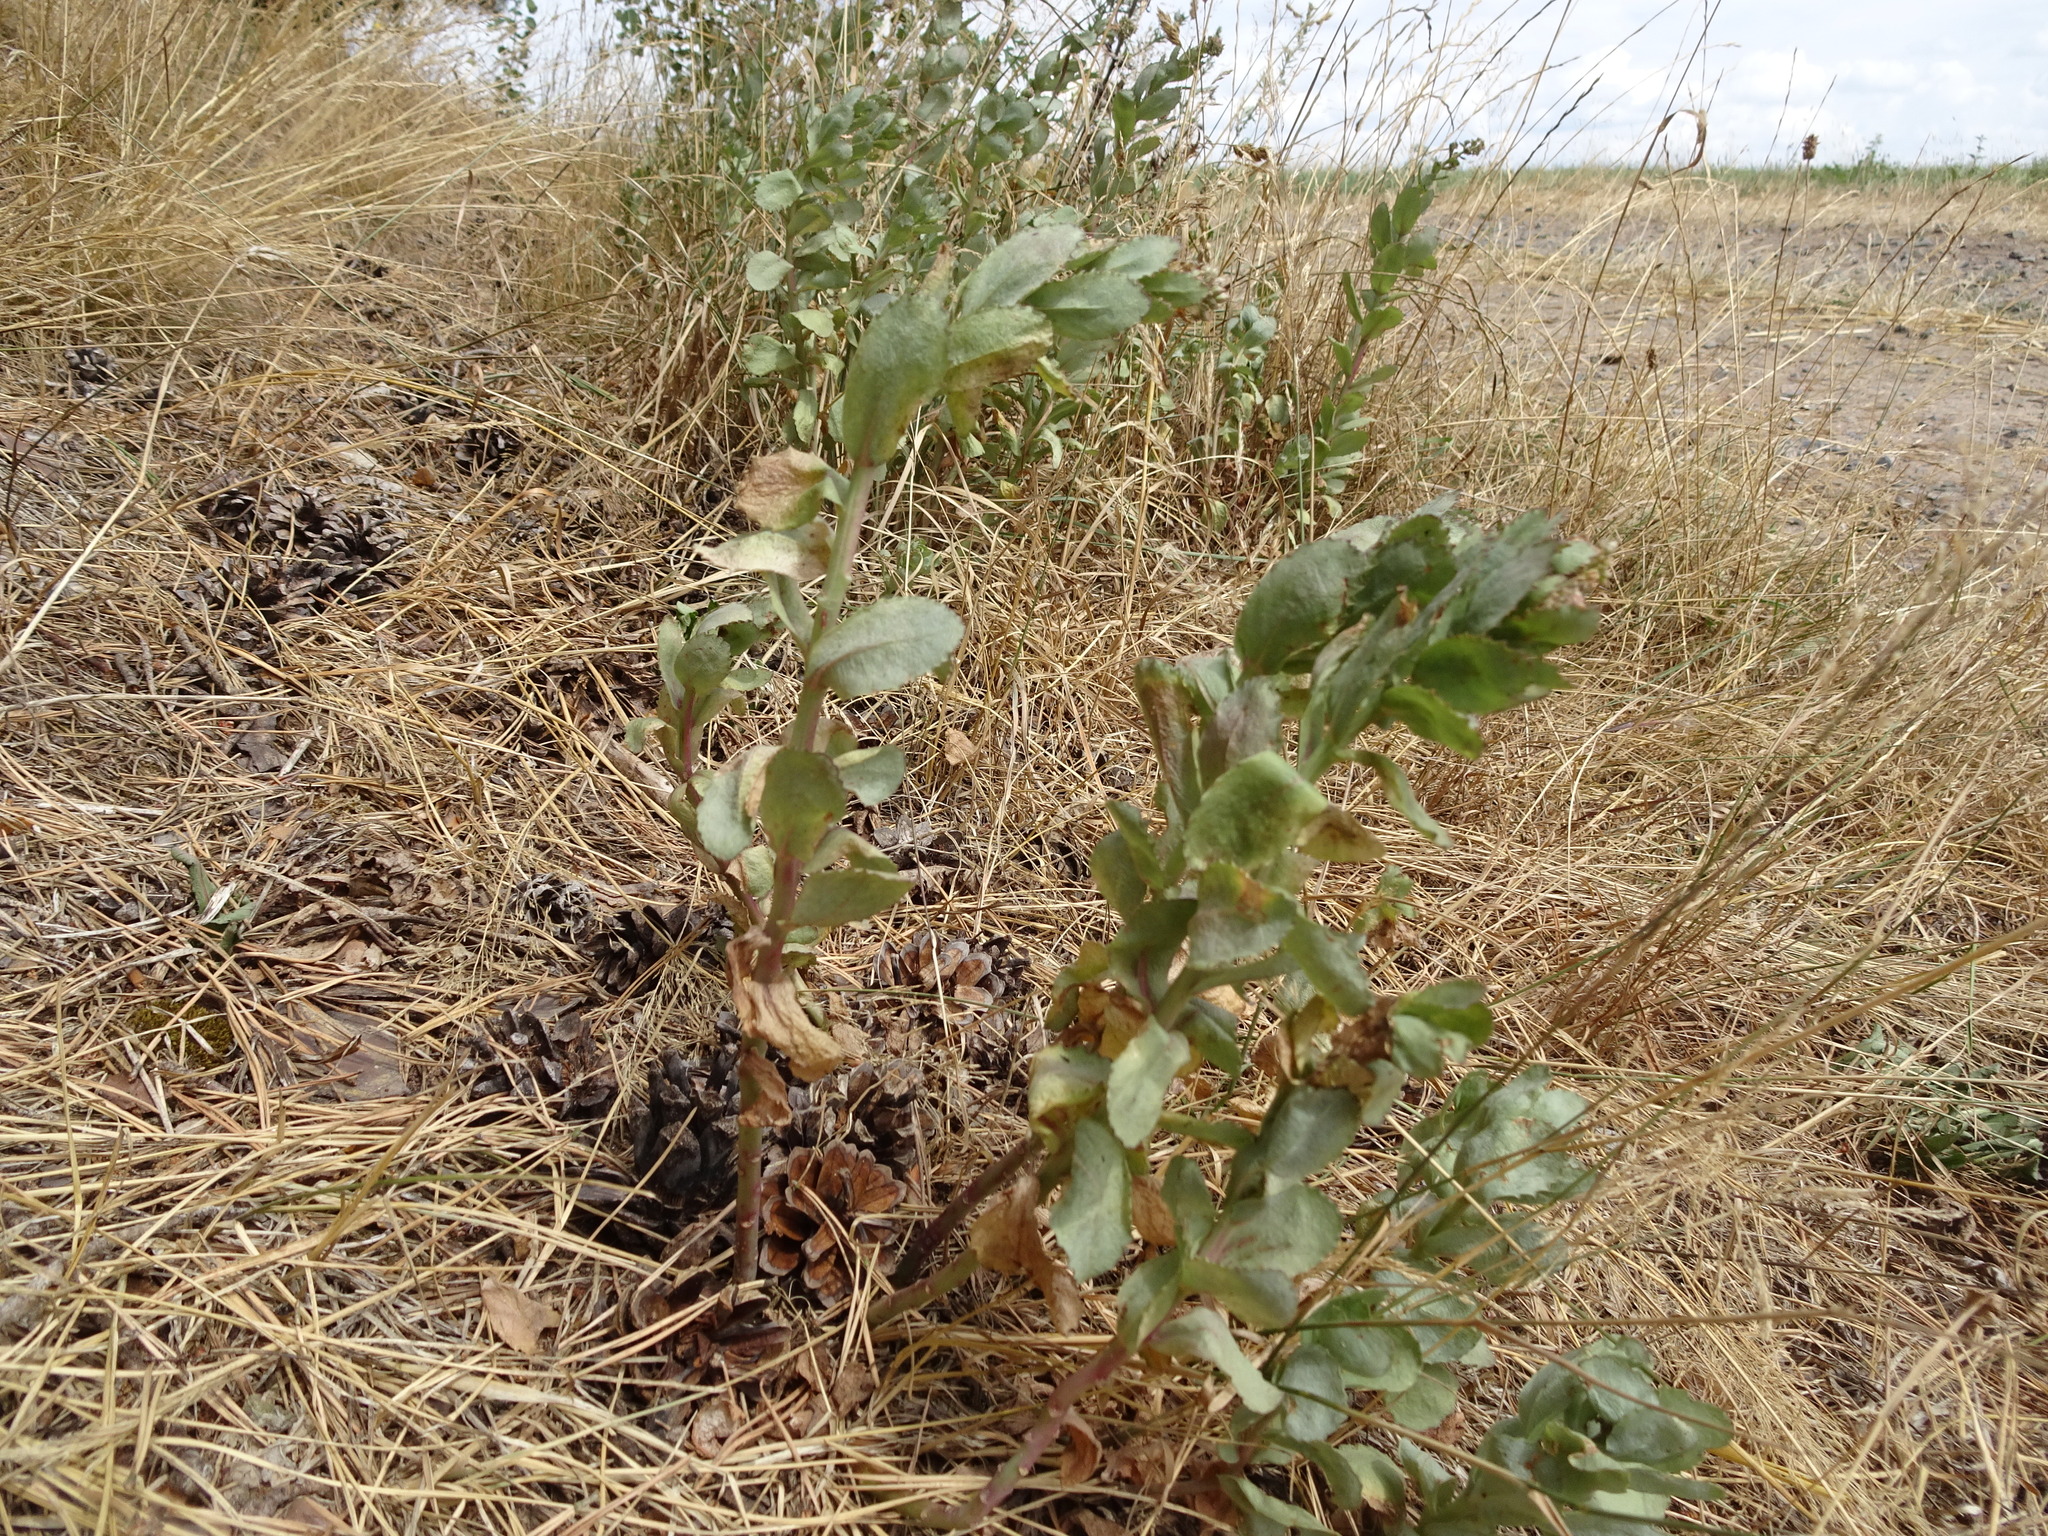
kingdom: Plantae
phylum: Tracheophyta
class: Magnoliopsida
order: Saxifragales
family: Crassulaceae
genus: Hylotelephium
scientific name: Hylotelephium maximum
